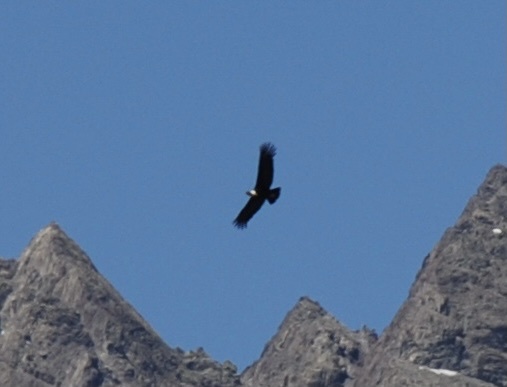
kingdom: Animalia
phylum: Chordata
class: Aves
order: Accipitriformes
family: Cathartidae
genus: Vultur
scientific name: Vultur gryphus
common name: Andean condor
